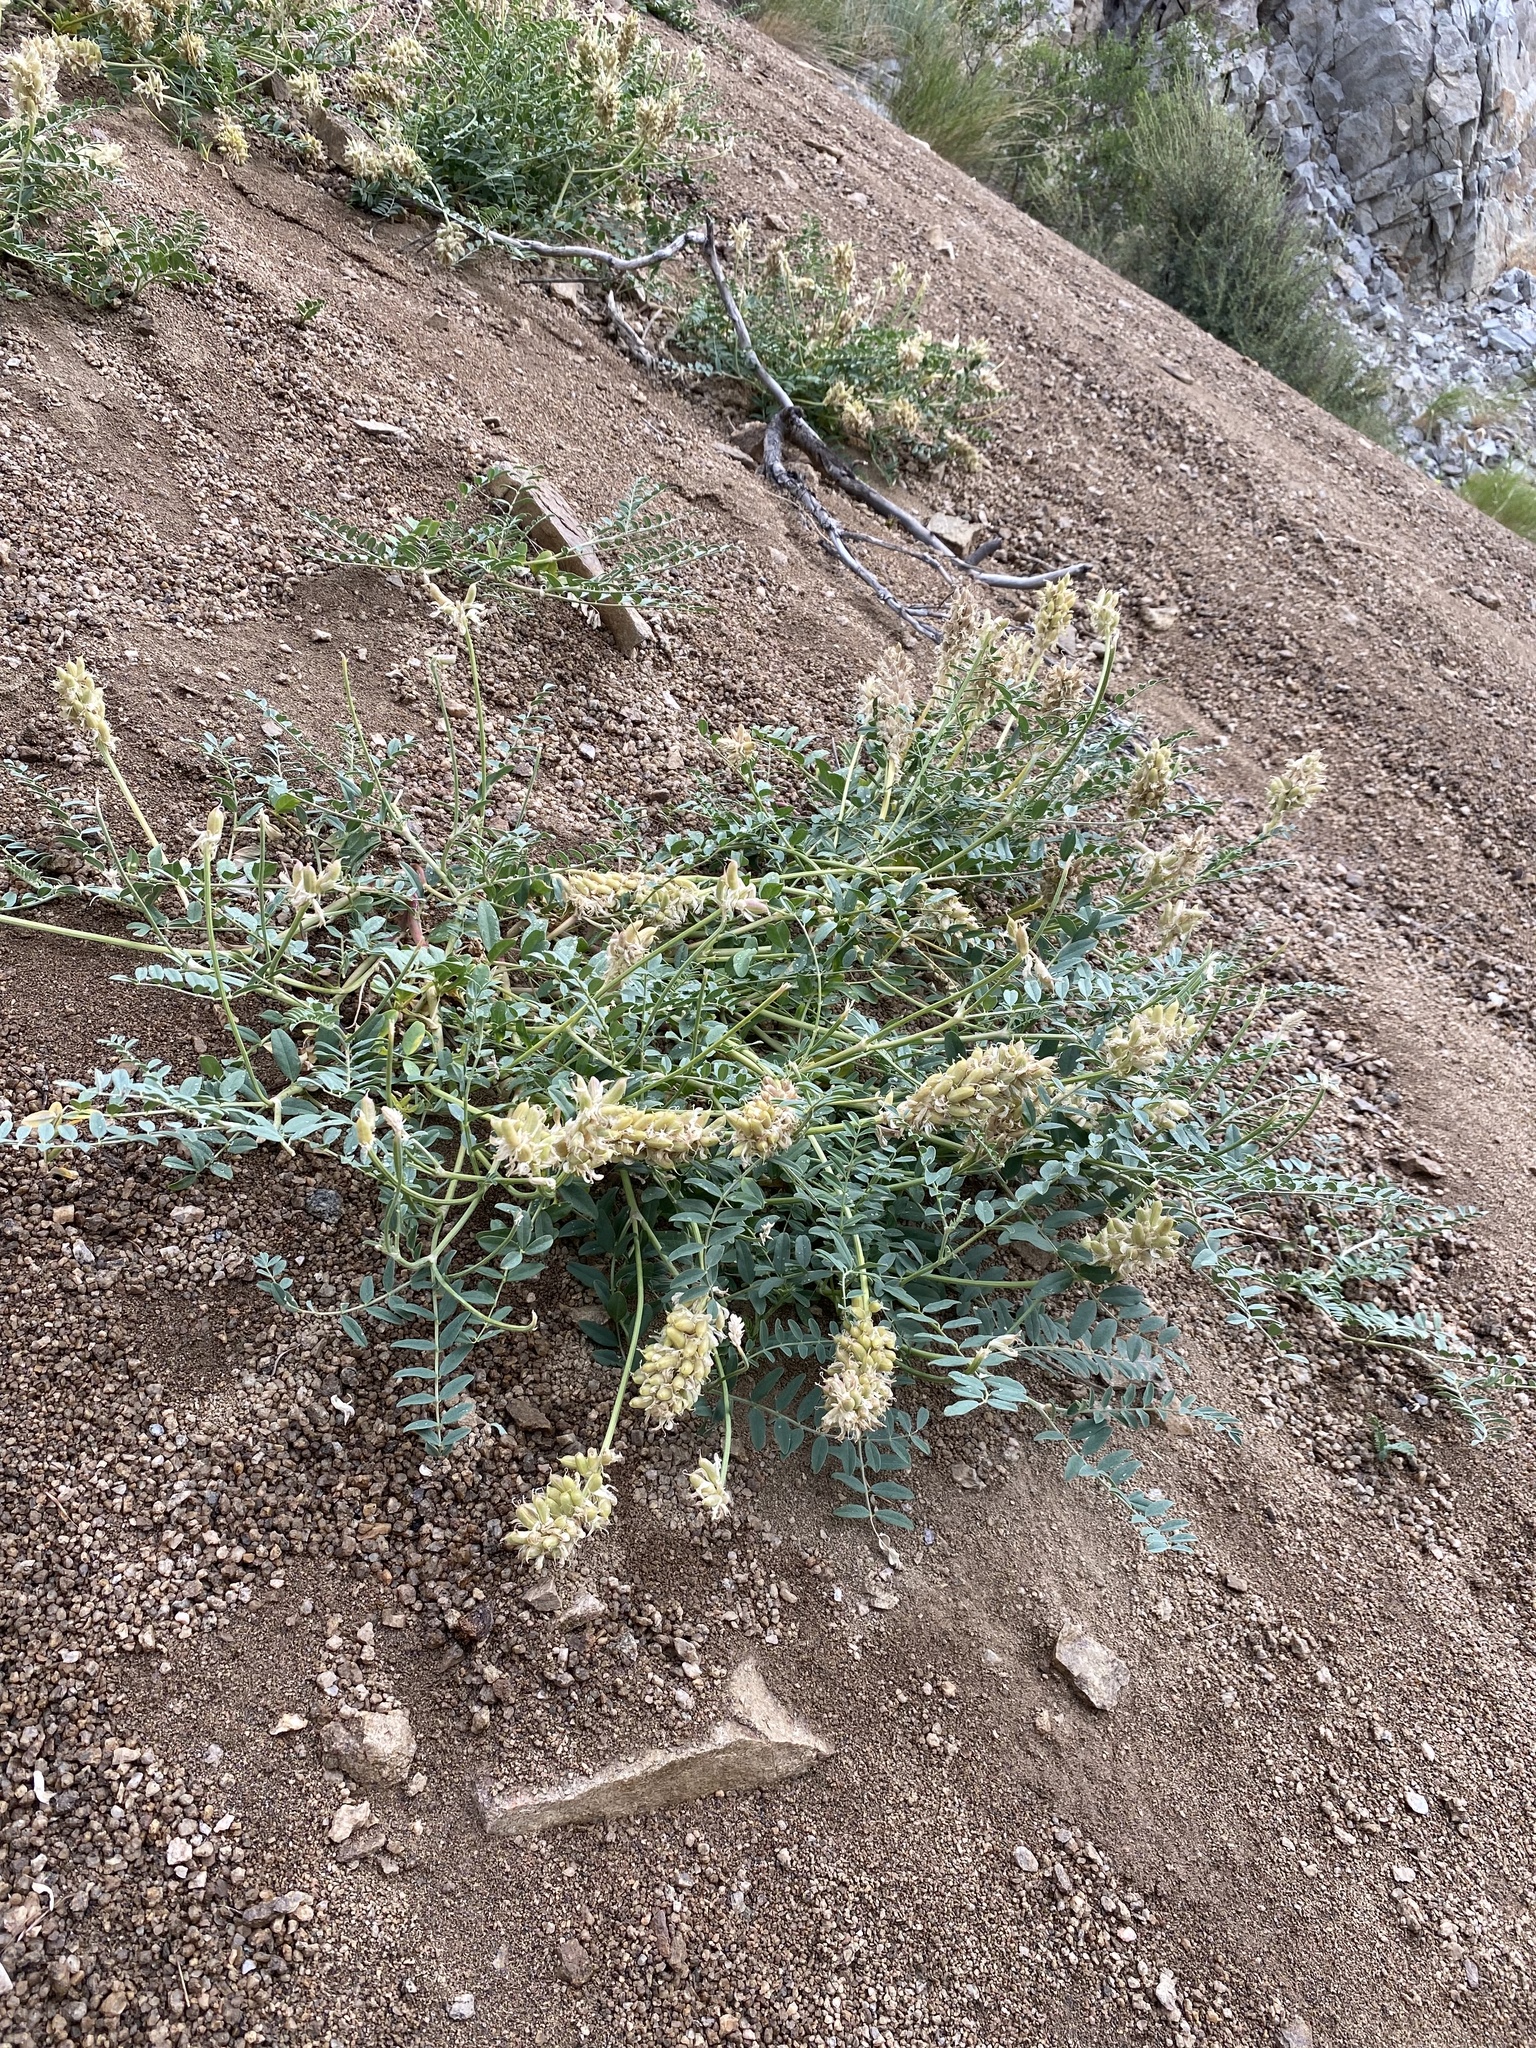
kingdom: Plantae
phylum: Tracheophyta
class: Magnoliopsida
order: Fabales
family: Fabaceae
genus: Astragalus
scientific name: Astragalus canadensis
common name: Canada milk-vetch
